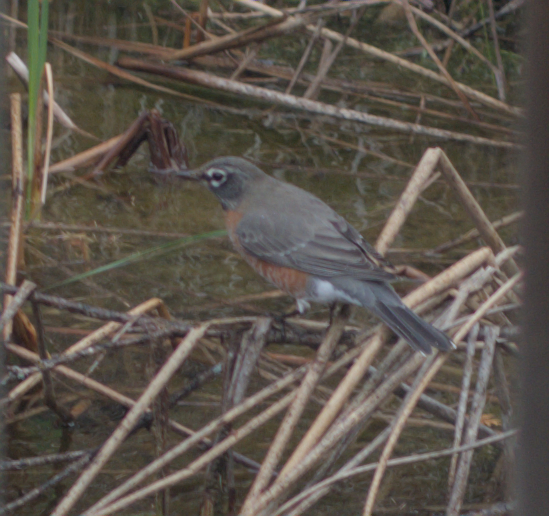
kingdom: Animalia
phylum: Chordata
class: Aves
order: Passeriformes
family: Turdidae
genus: Turdus
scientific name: Turdus migratorius
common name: American robin
